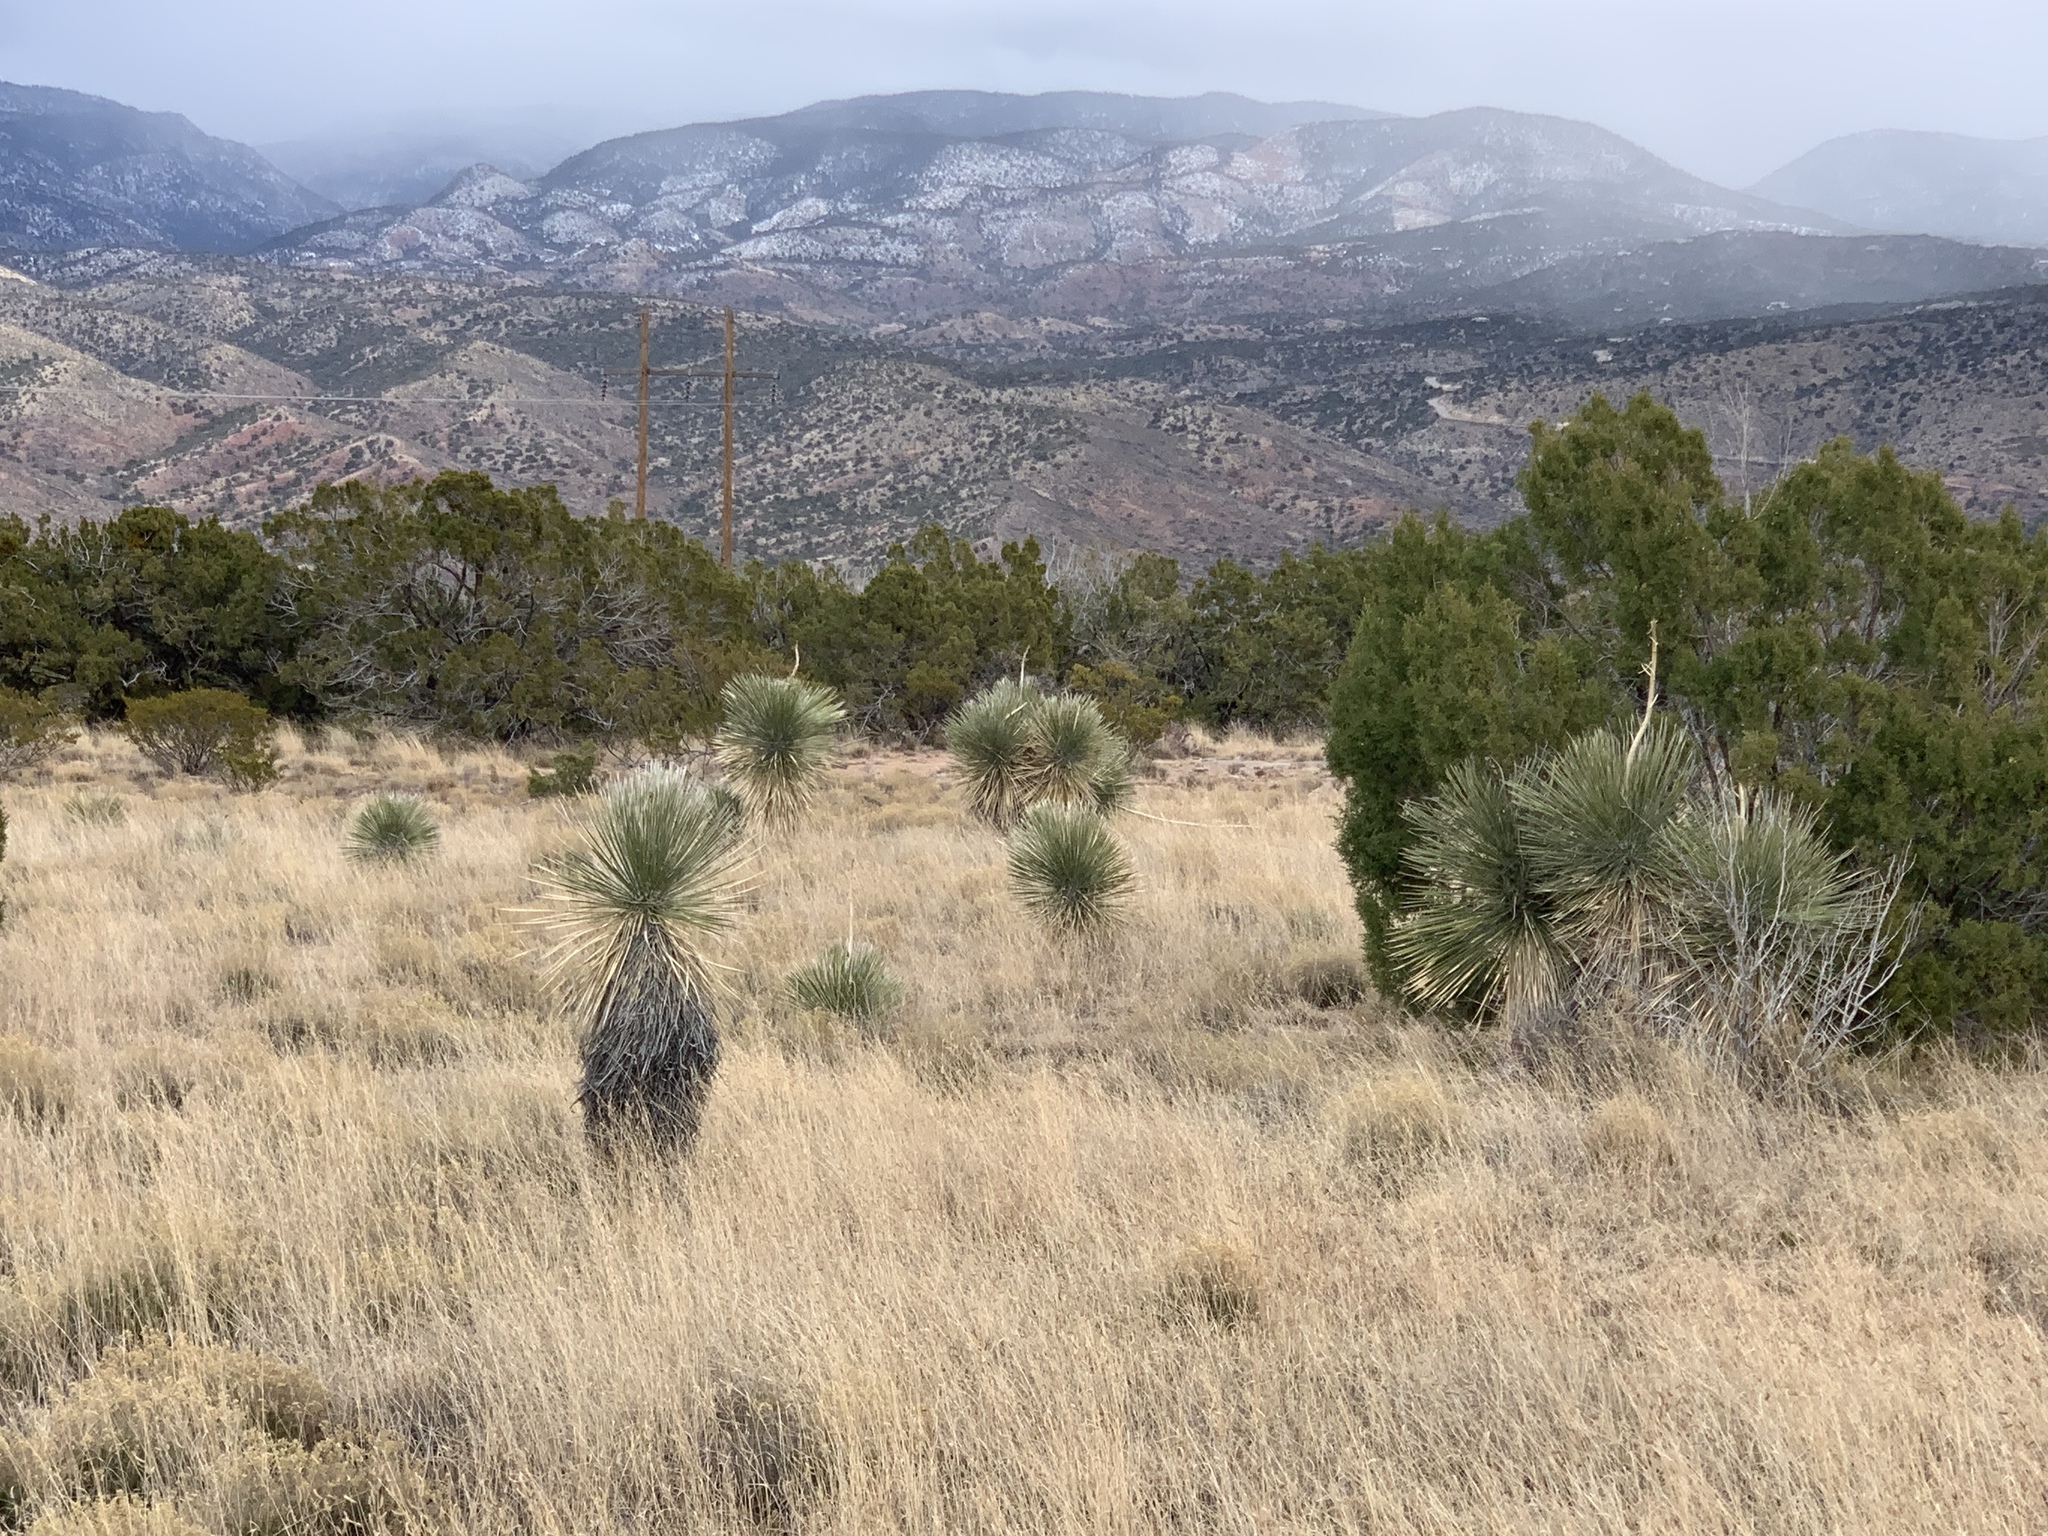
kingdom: Plantae
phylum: Tracheophyta
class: Liliopsida
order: Asparagales
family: Asparagaceae
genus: Yucca
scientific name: Yucca elata
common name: Palmella
